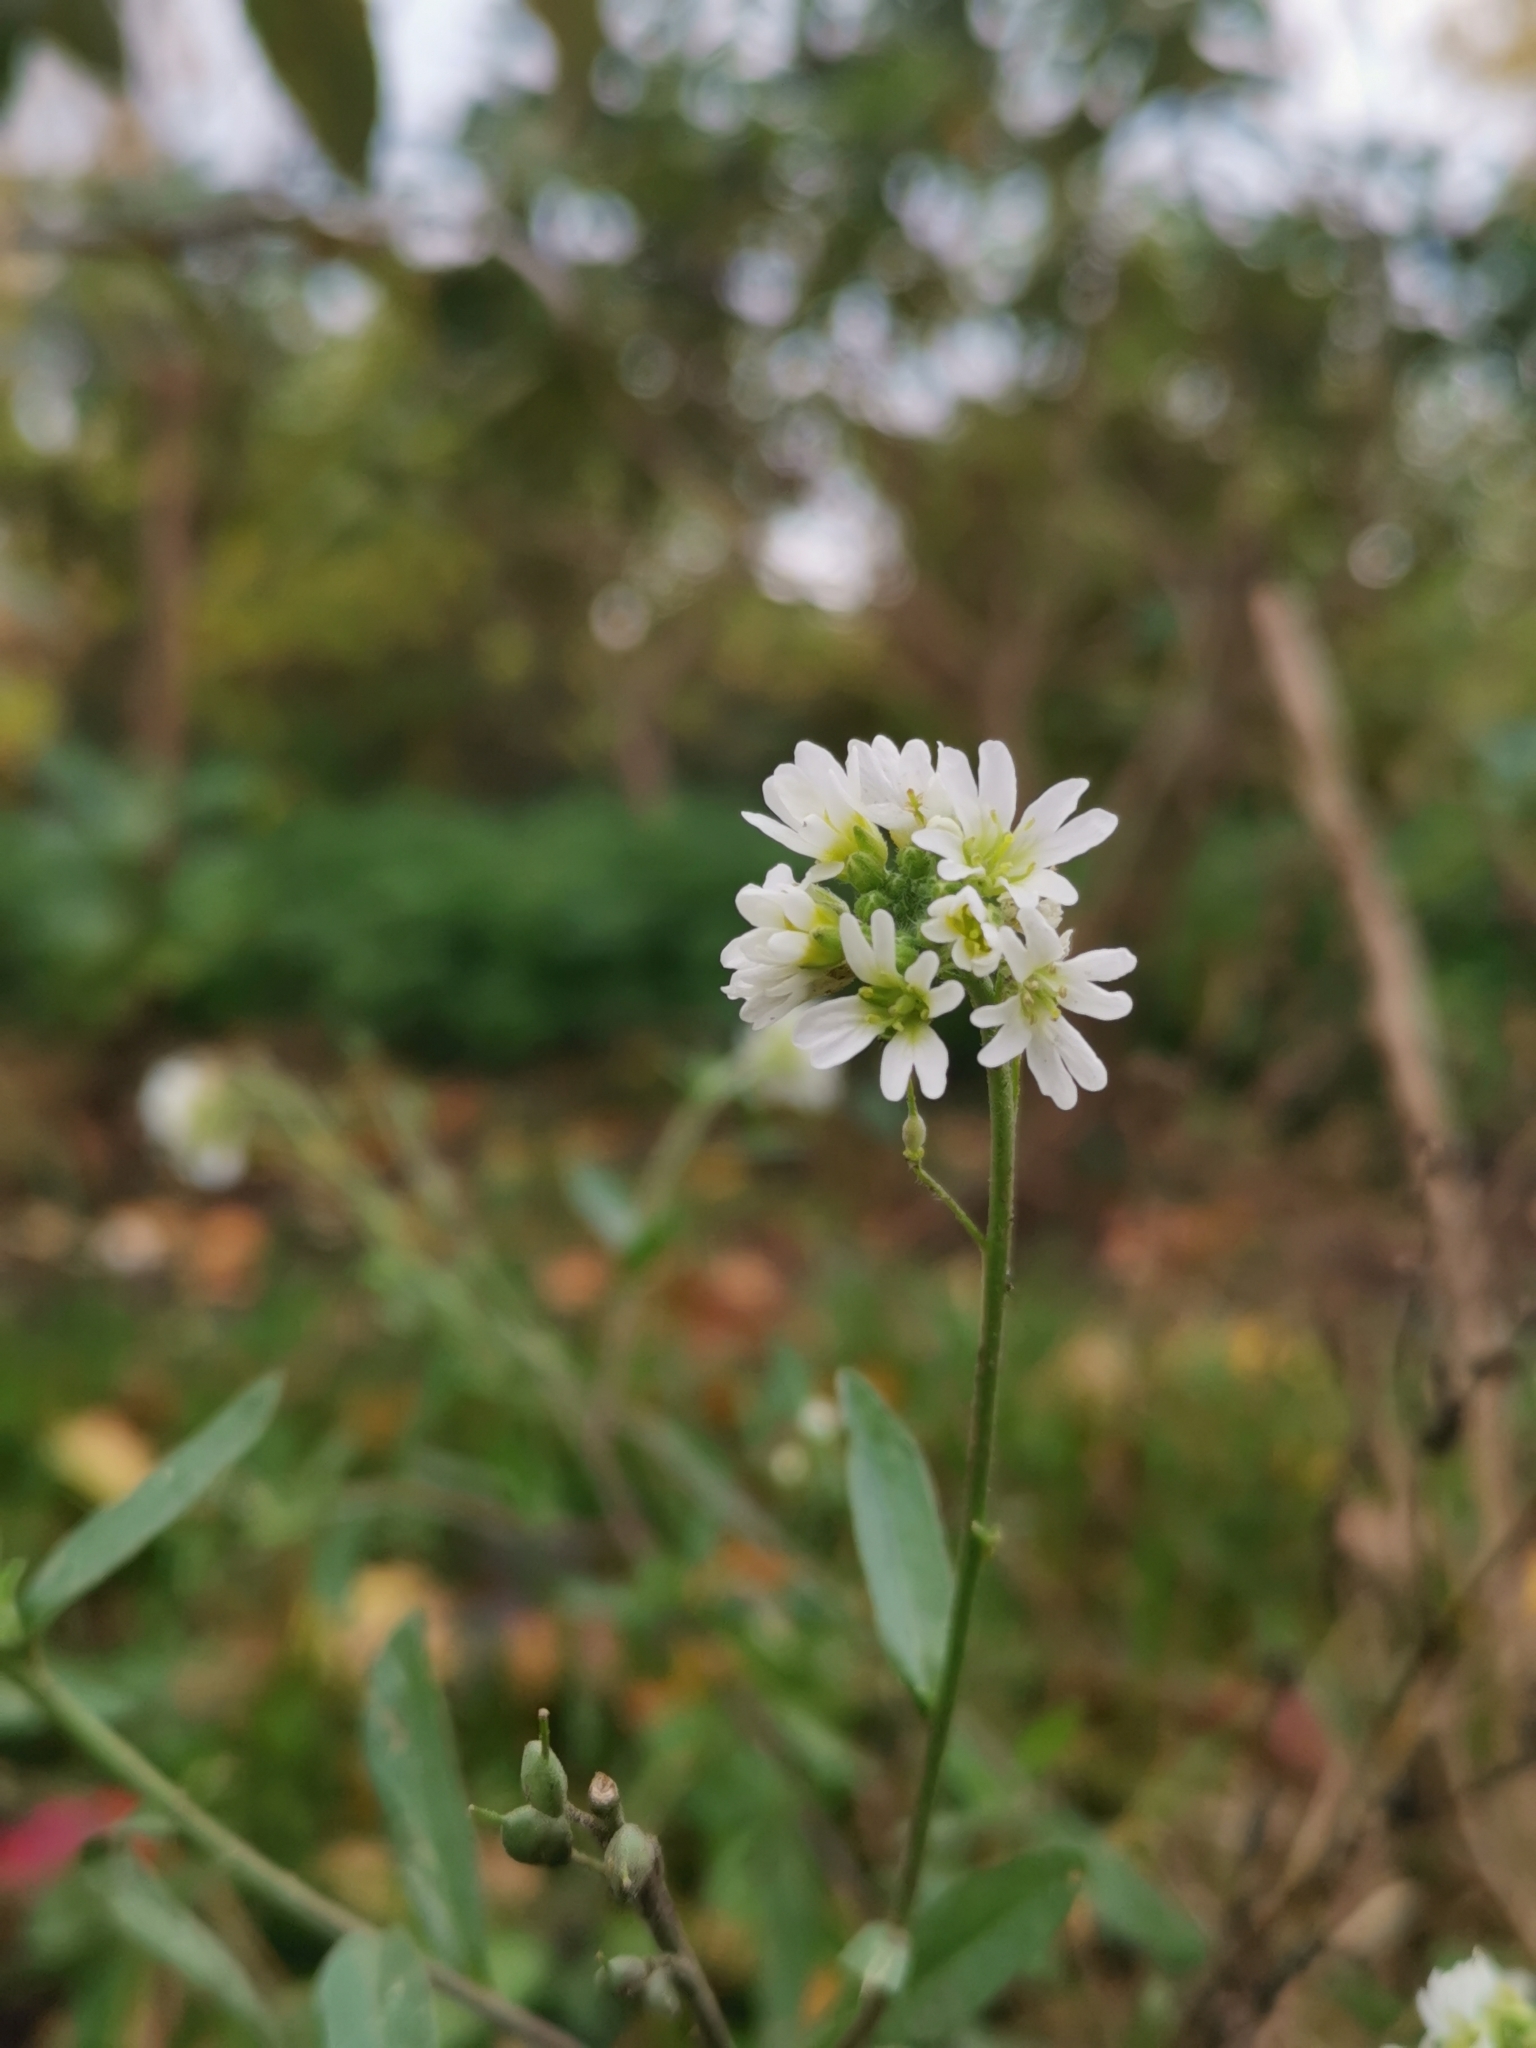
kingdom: Plantae
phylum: Tracheophyta
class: Magnoliopsida
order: Brassicales
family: Brassicaceae
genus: Berteroa
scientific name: Berteroa incana
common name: Hoary alison
